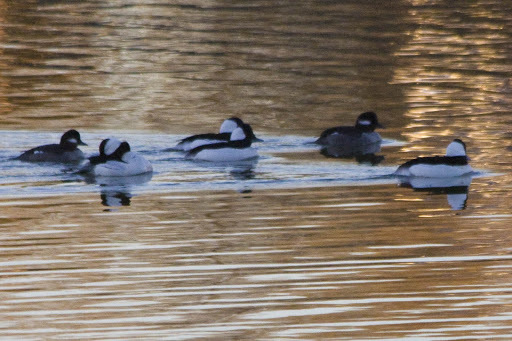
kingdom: Animalia
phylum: Chordata
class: Aves
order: Anseriformes
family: Anatidae
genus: Bucephala
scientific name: Bucephala albeola
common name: Bufflehead
